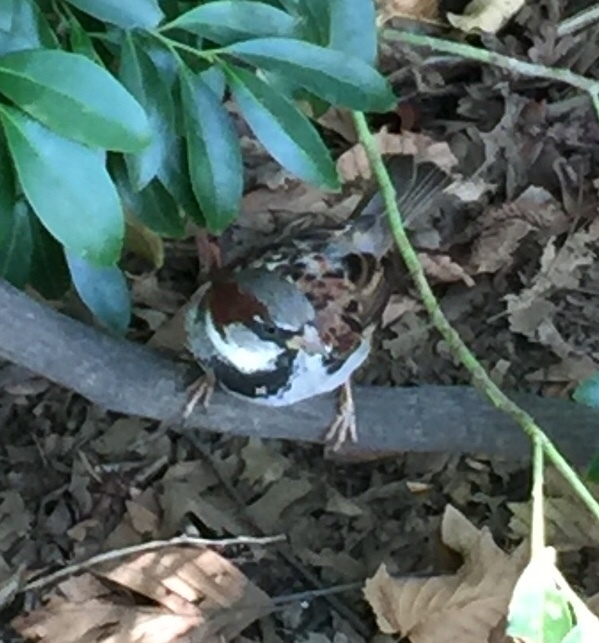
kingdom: Animalia
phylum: Chordata
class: Aves
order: Passeriformes
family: Passeridae
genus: Passer
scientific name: Passer domesticus
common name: House sparrow
